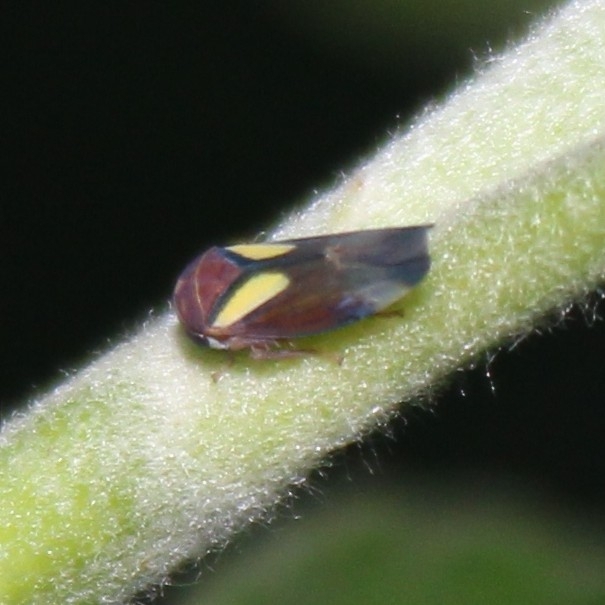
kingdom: Animalia
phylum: Arthropoda
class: Insecta
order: Hemiptera
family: Cicadellidae
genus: Balcanocerus
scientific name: Balcanocerus provancheri
